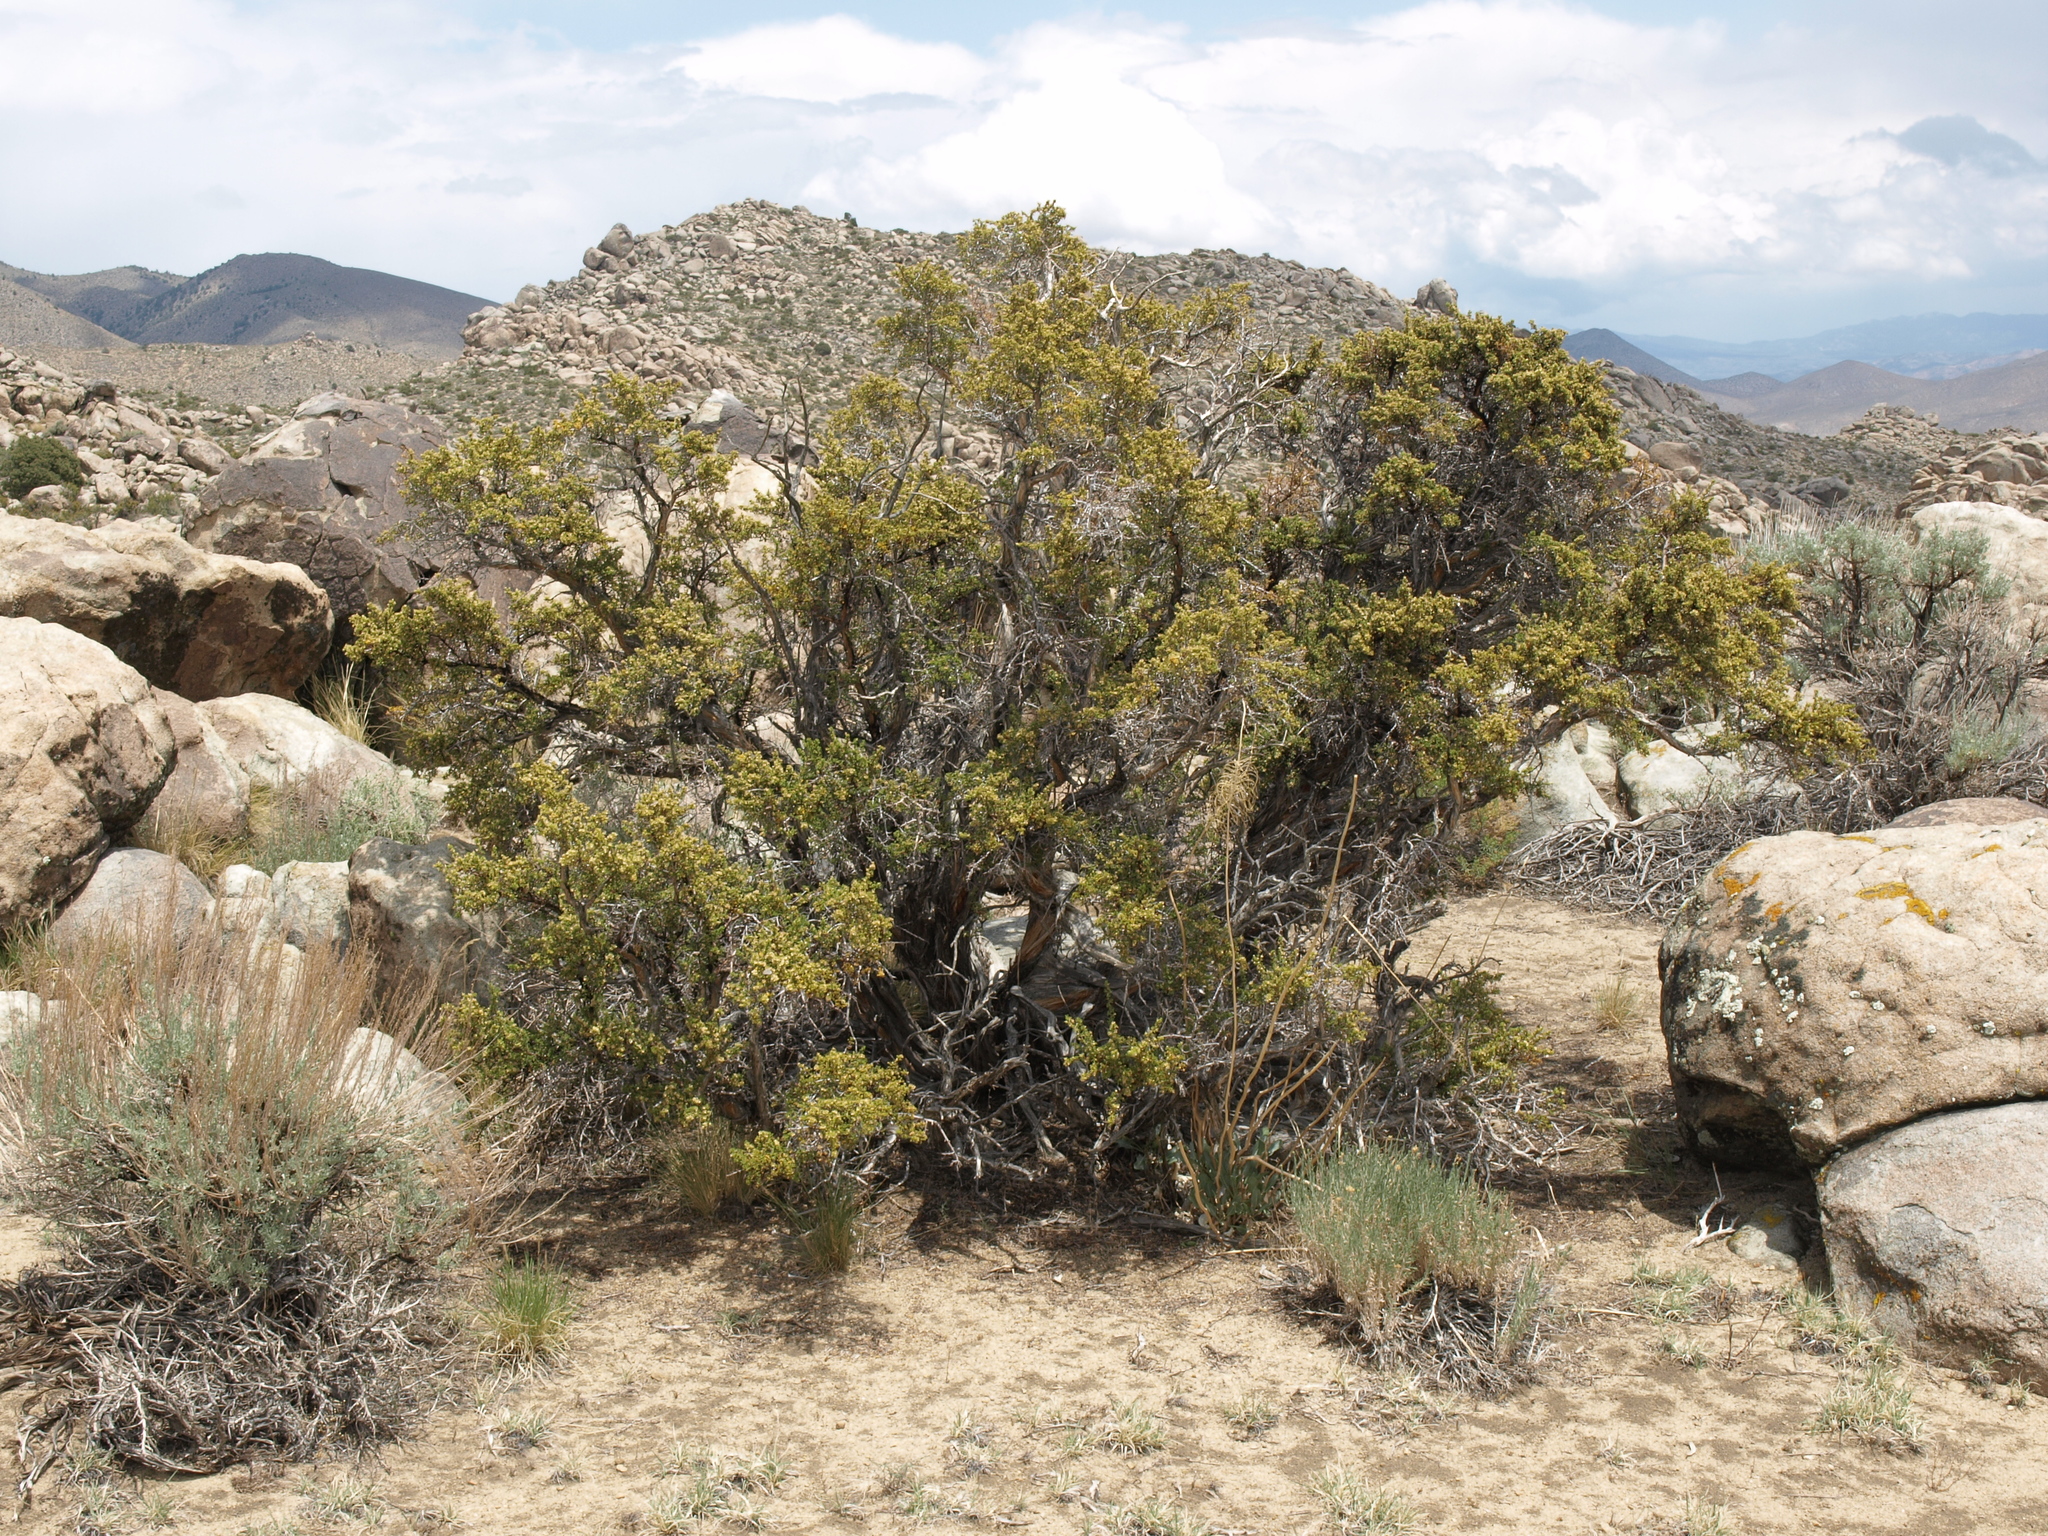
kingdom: Plantae
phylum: Tracheophyta
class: Magnoliopsida
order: Rosales
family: Rosaceae
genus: Purshia
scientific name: Purshia glandulosa
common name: Desert bitterbrush
